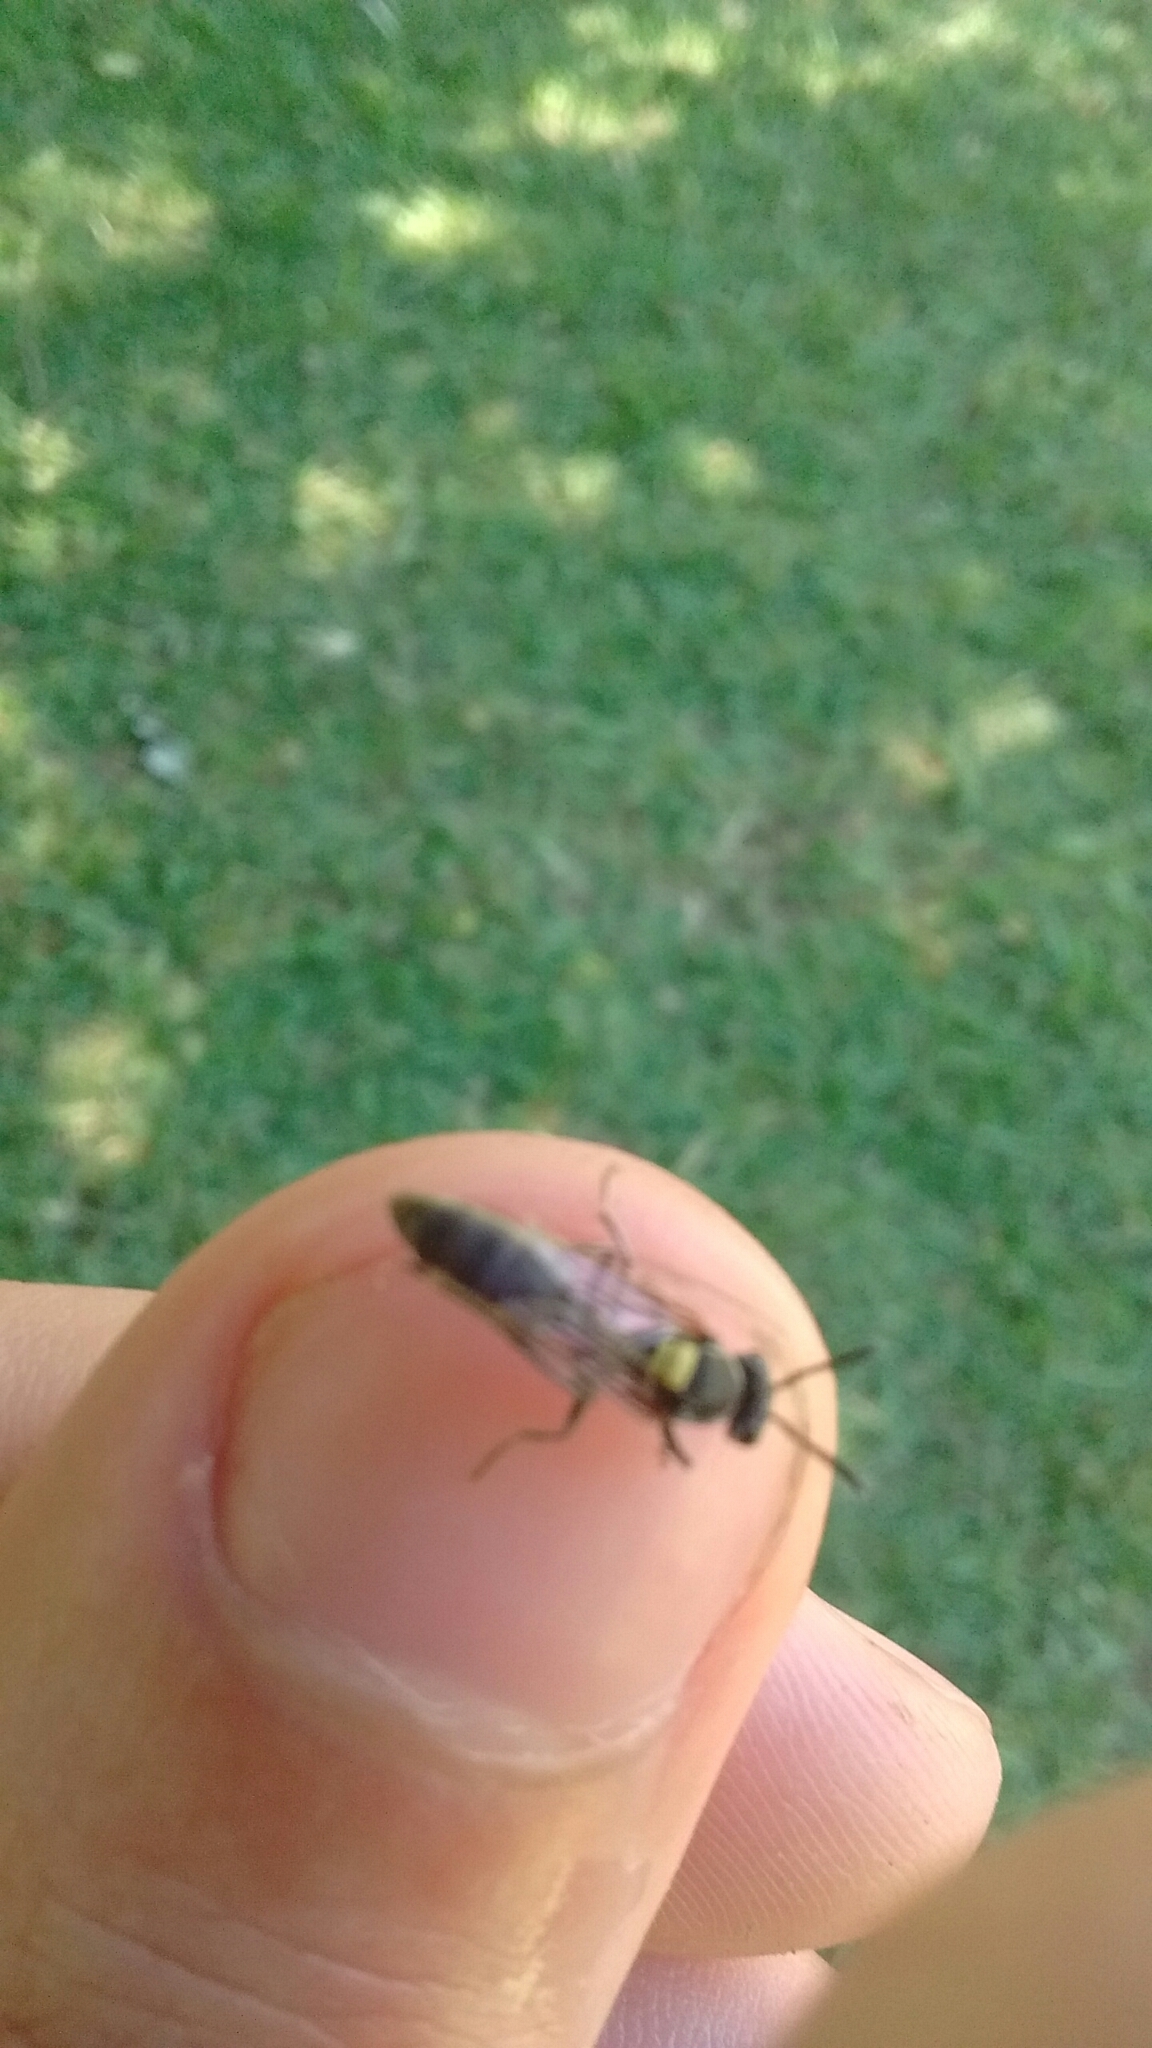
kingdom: Animalia
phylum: Arthropoda
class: Insecta
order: Hymenoptera
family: Eumenidae
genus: Polybia
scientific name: Polybia scutellaris
